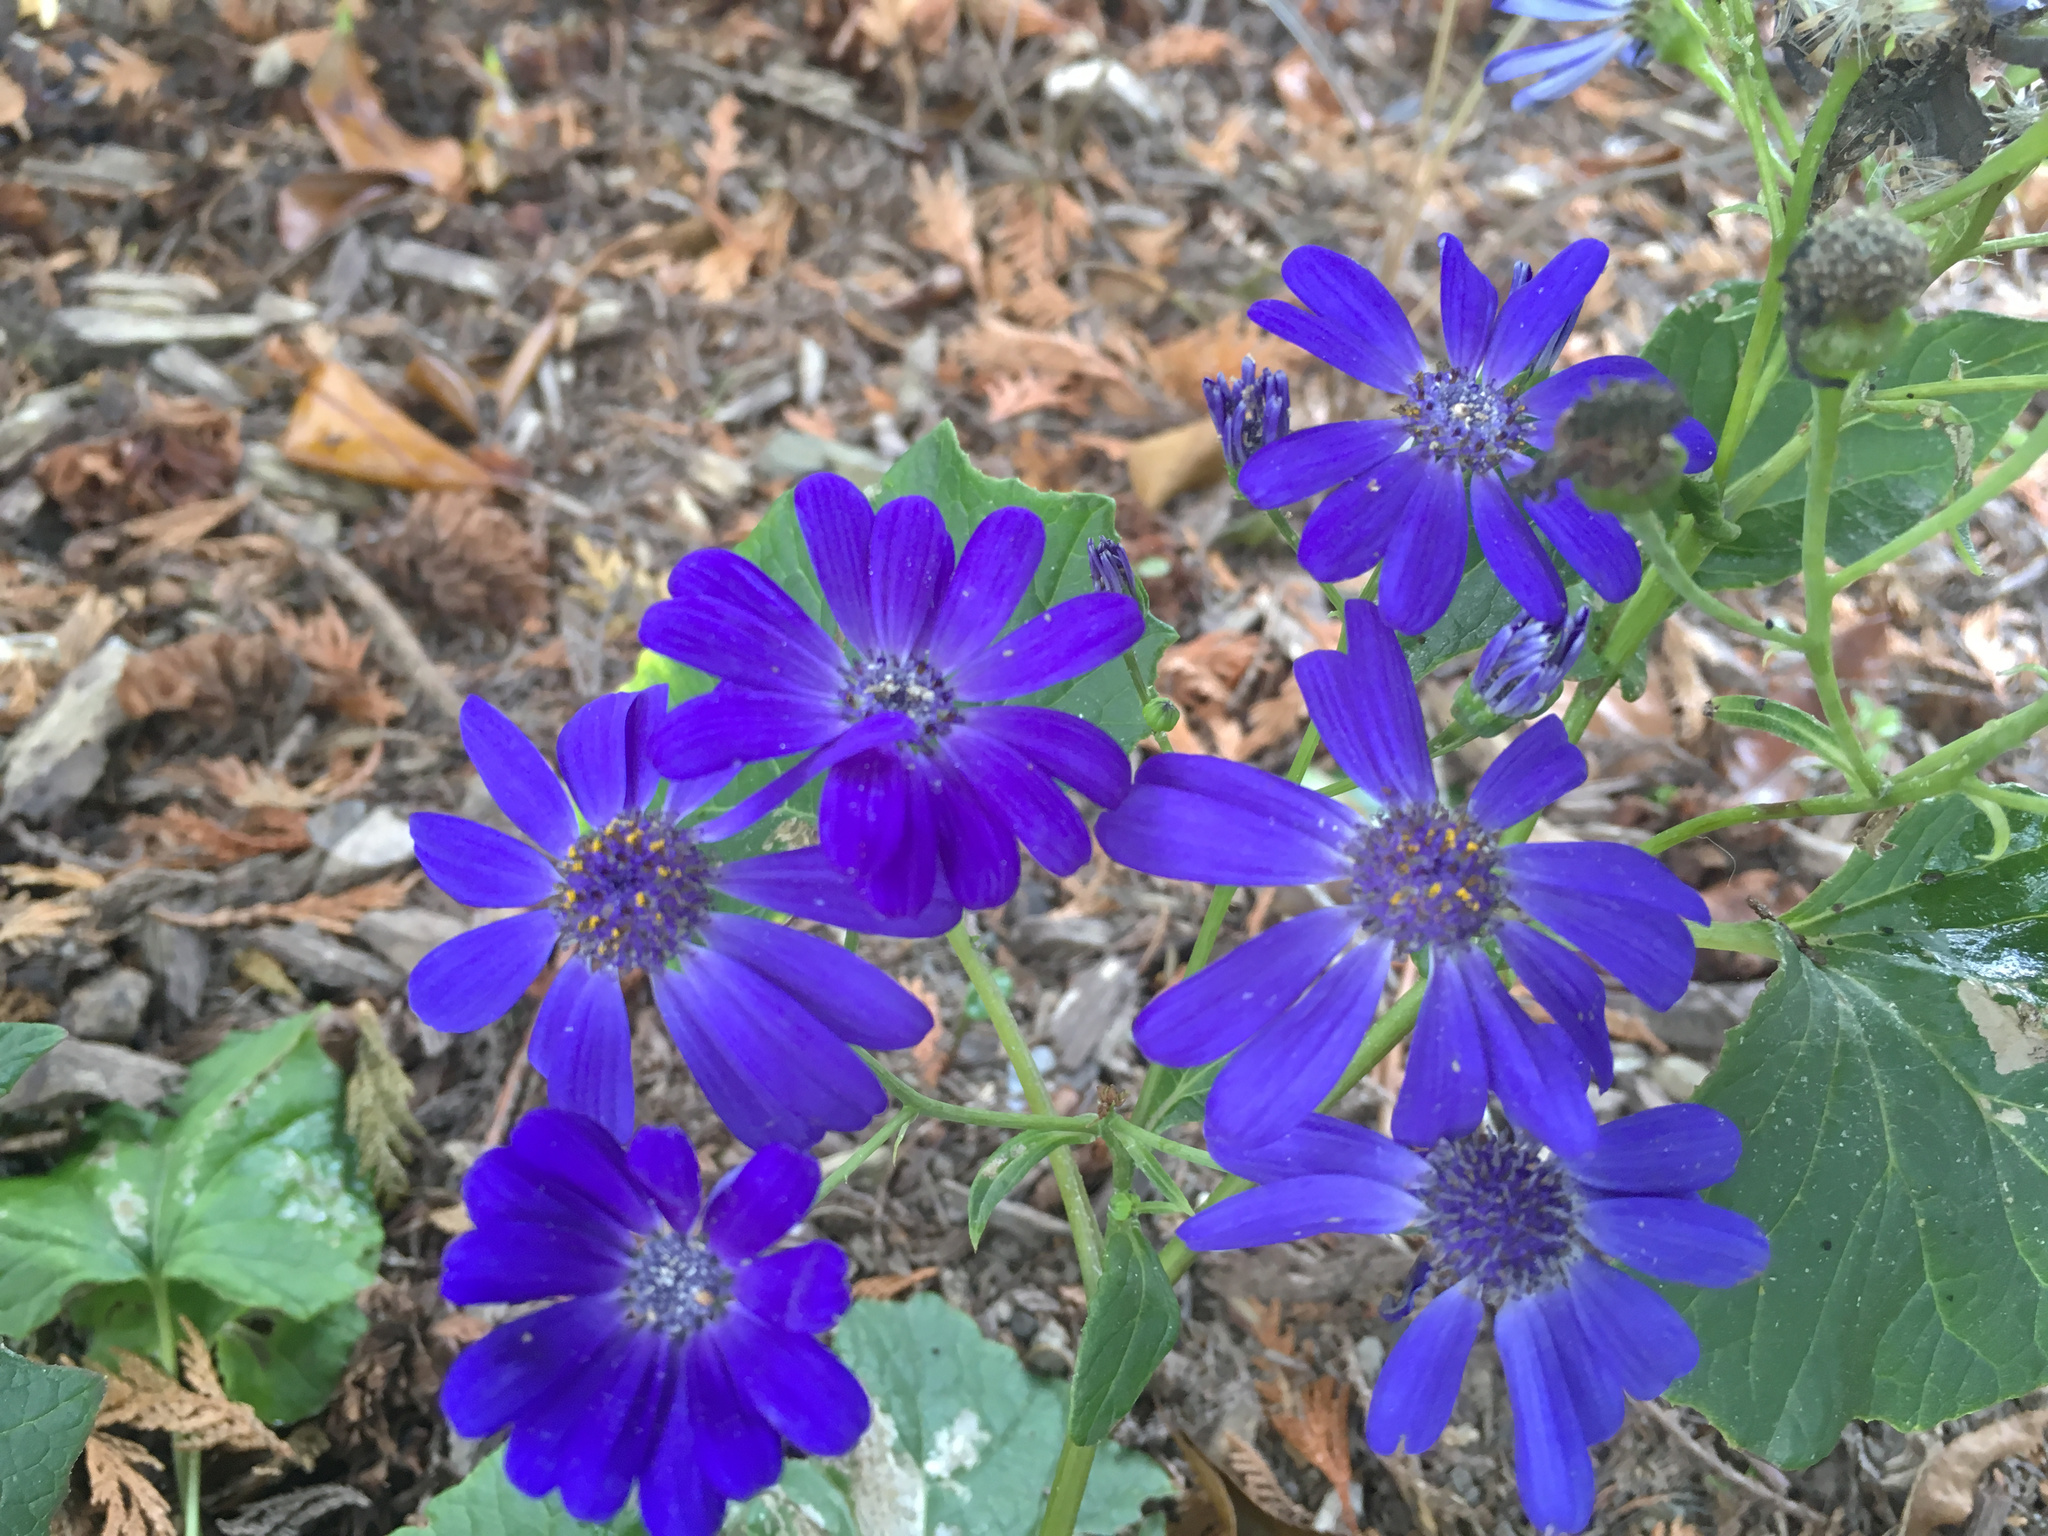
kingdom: Plantae
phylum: Tracheophyta
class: Magnoliopsida
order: Asterales
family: Asteraceae
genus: Pericallis
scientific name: Pericallis hybrida
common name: Cineraria
